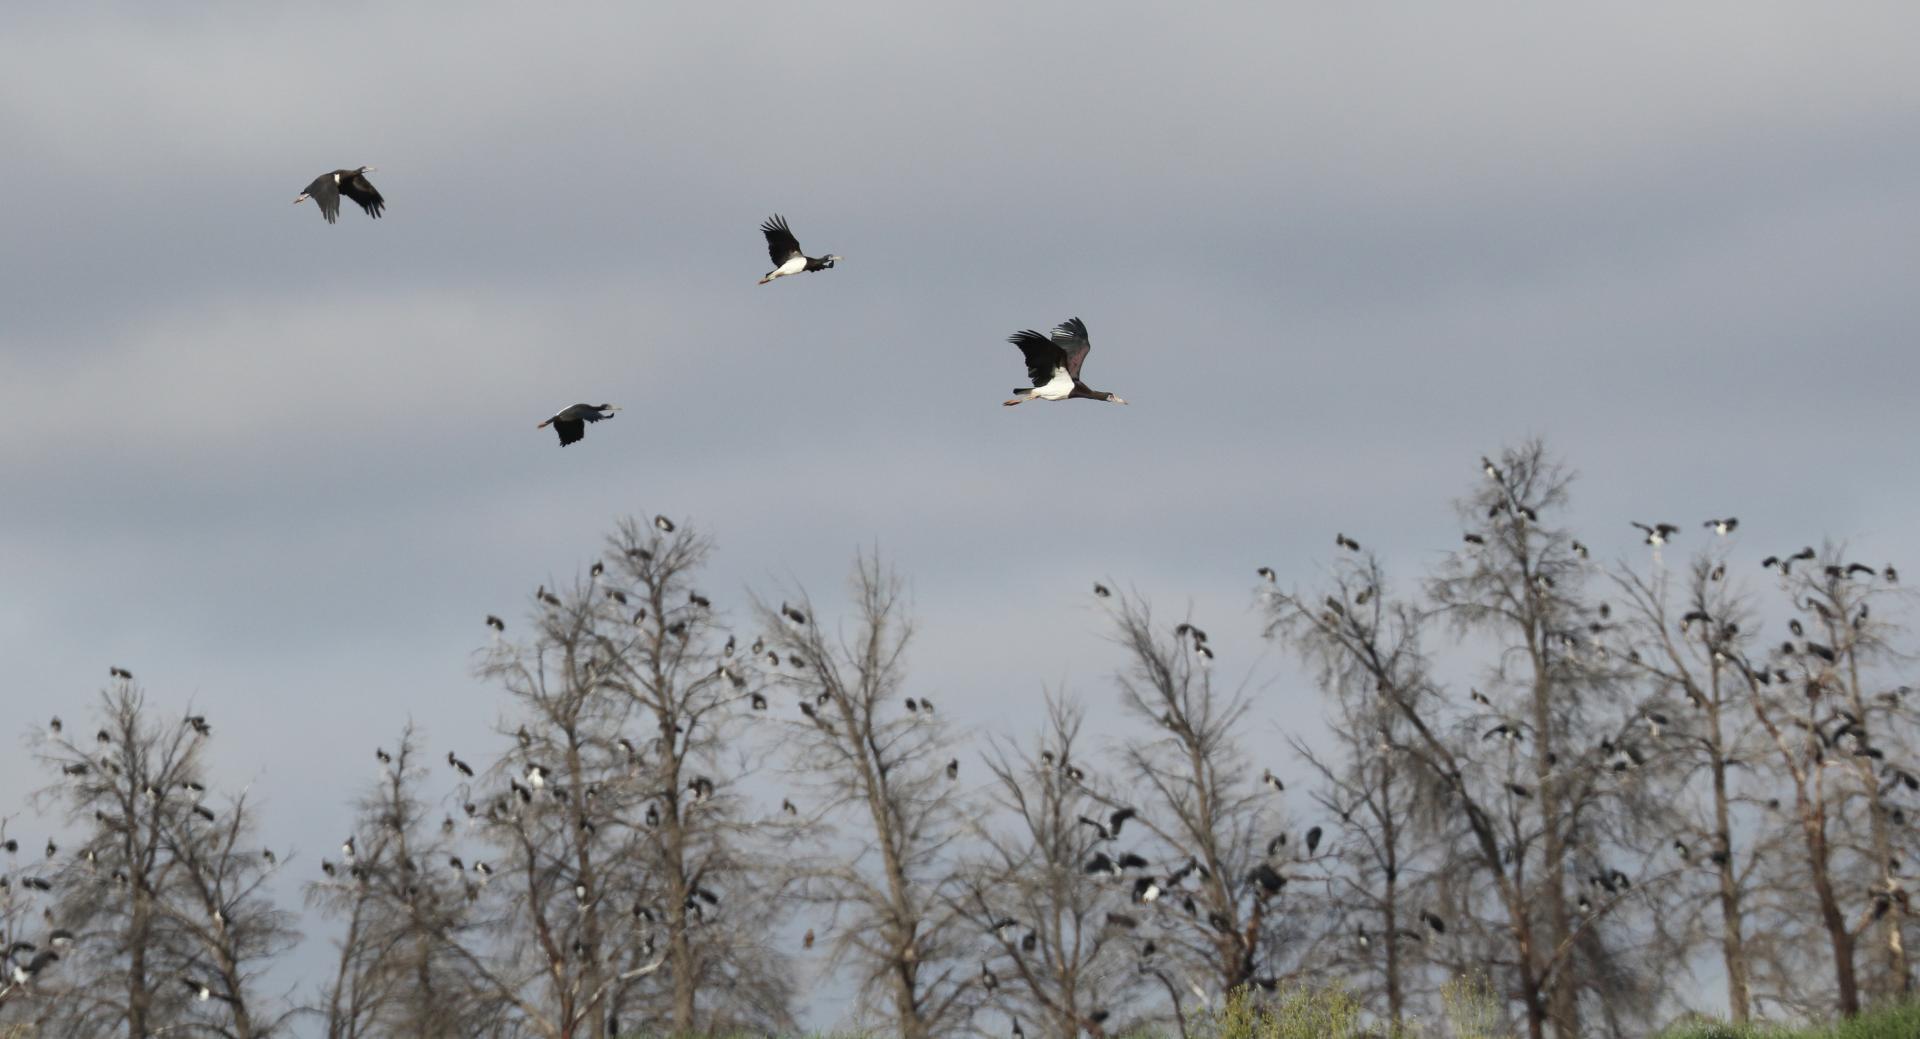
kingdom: Animalia
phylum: Chordata
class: Aves
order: Ciconiiformes
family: Ciconiidae
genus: Ciconia
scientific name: Ciconia abdimii
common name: Abdim's stork
